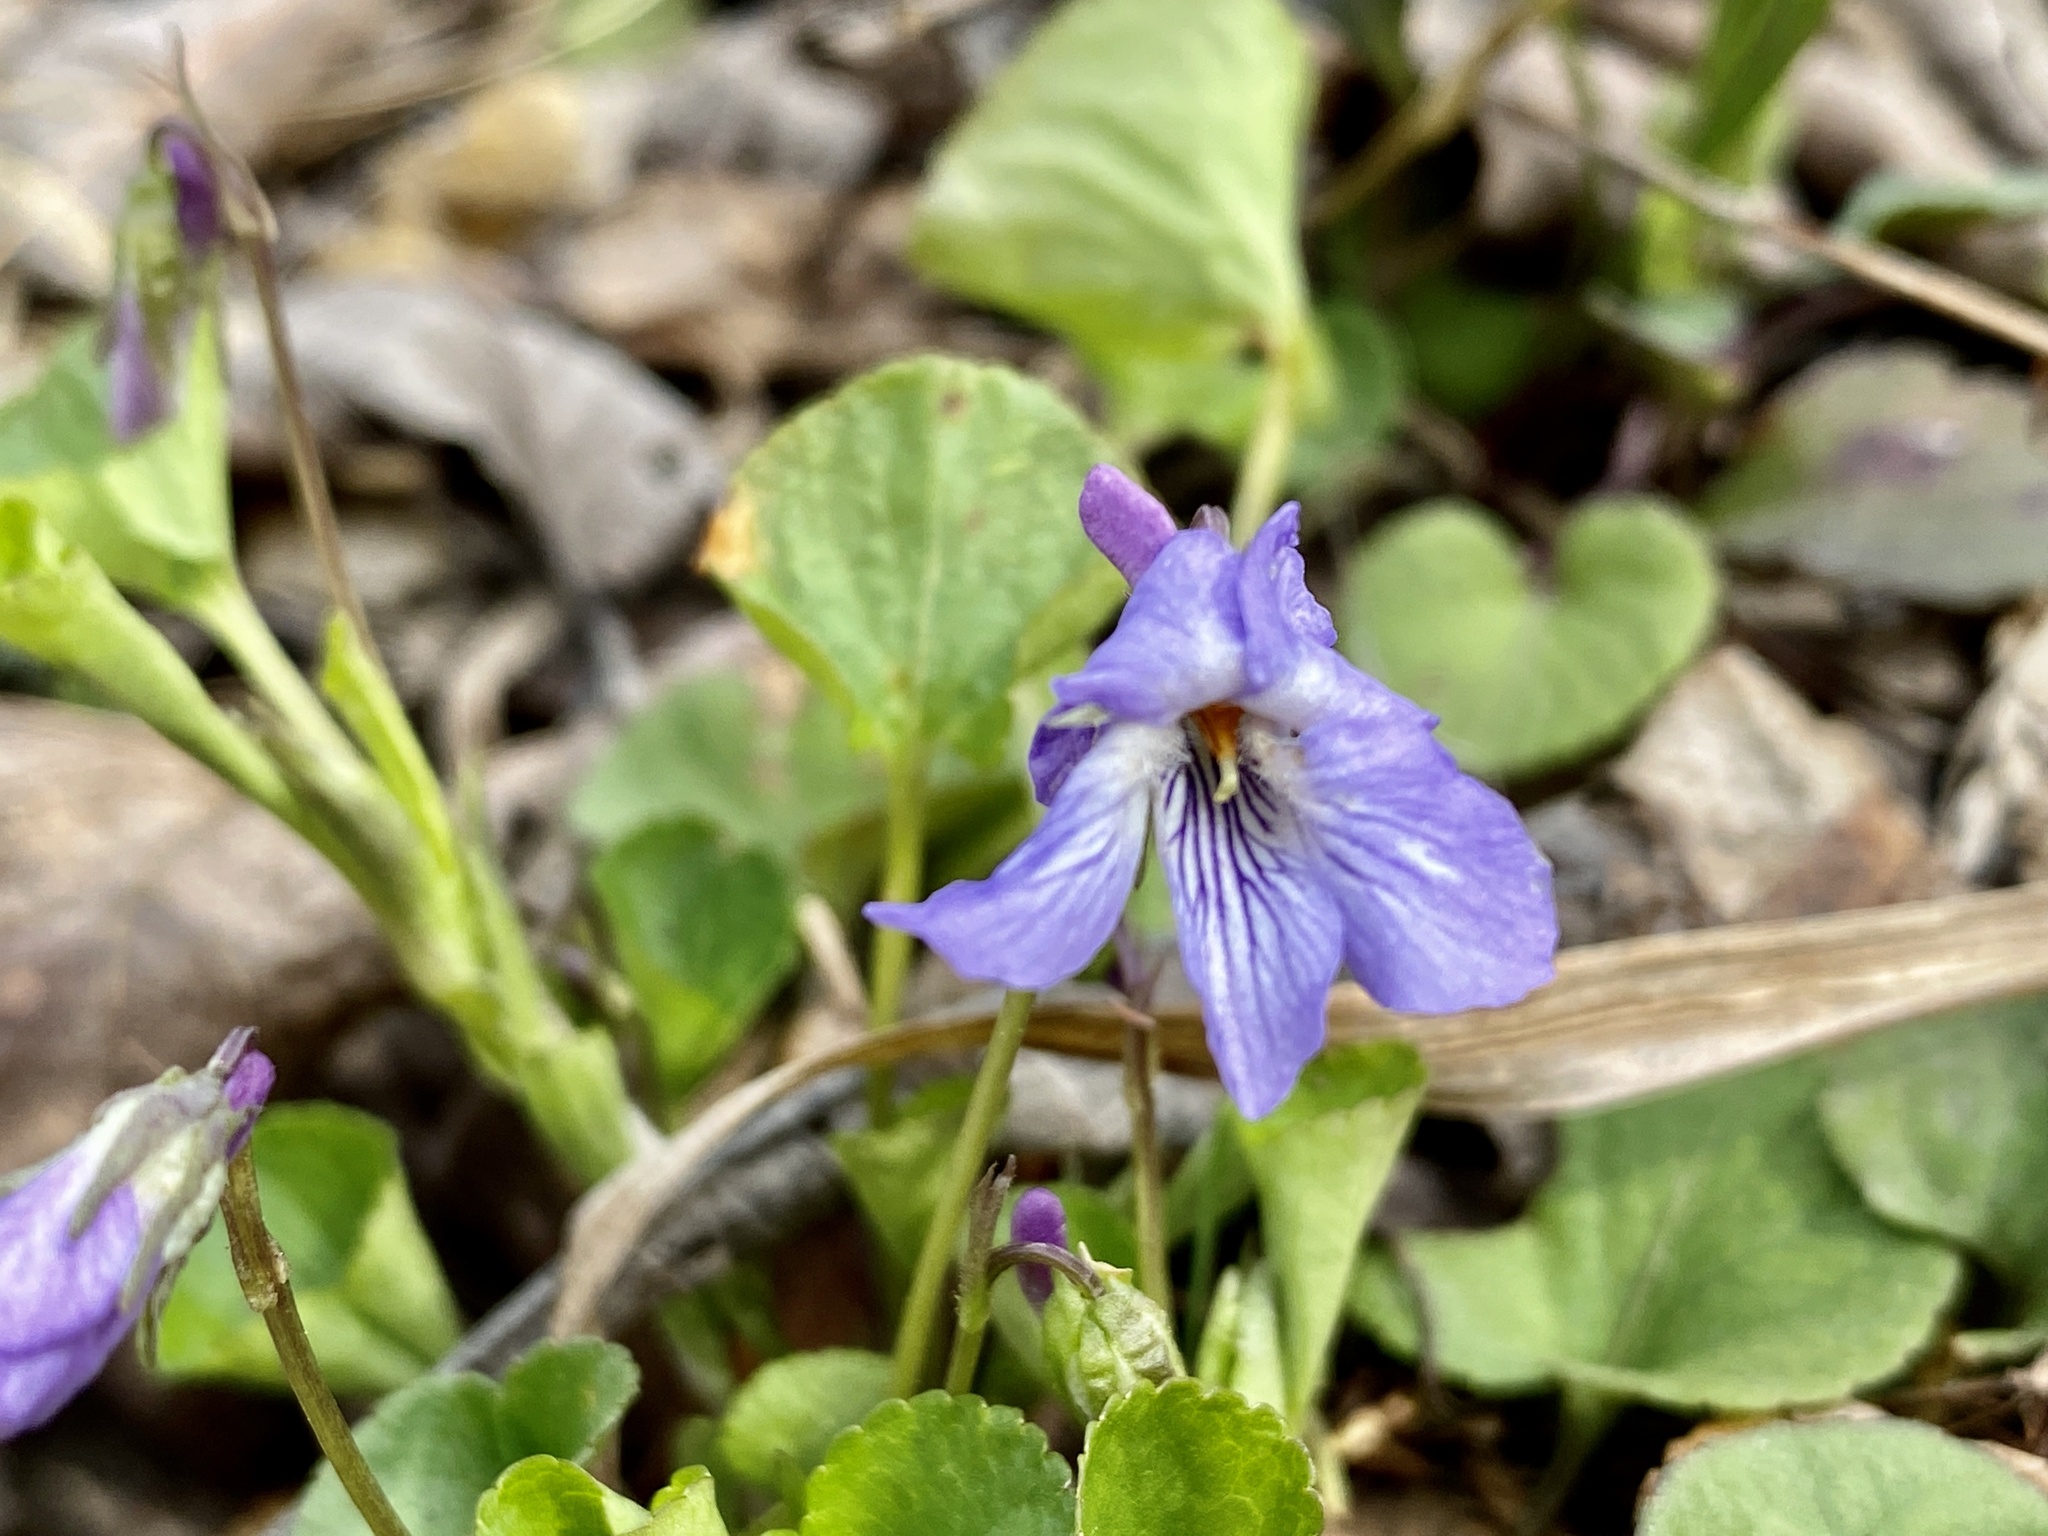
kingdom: Plantae
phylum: Tracheophyta
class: Magnoliopsida
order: Malpighiales
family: Violaceae
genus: Viola
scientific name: Viola labradorica
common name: Labrador violet
